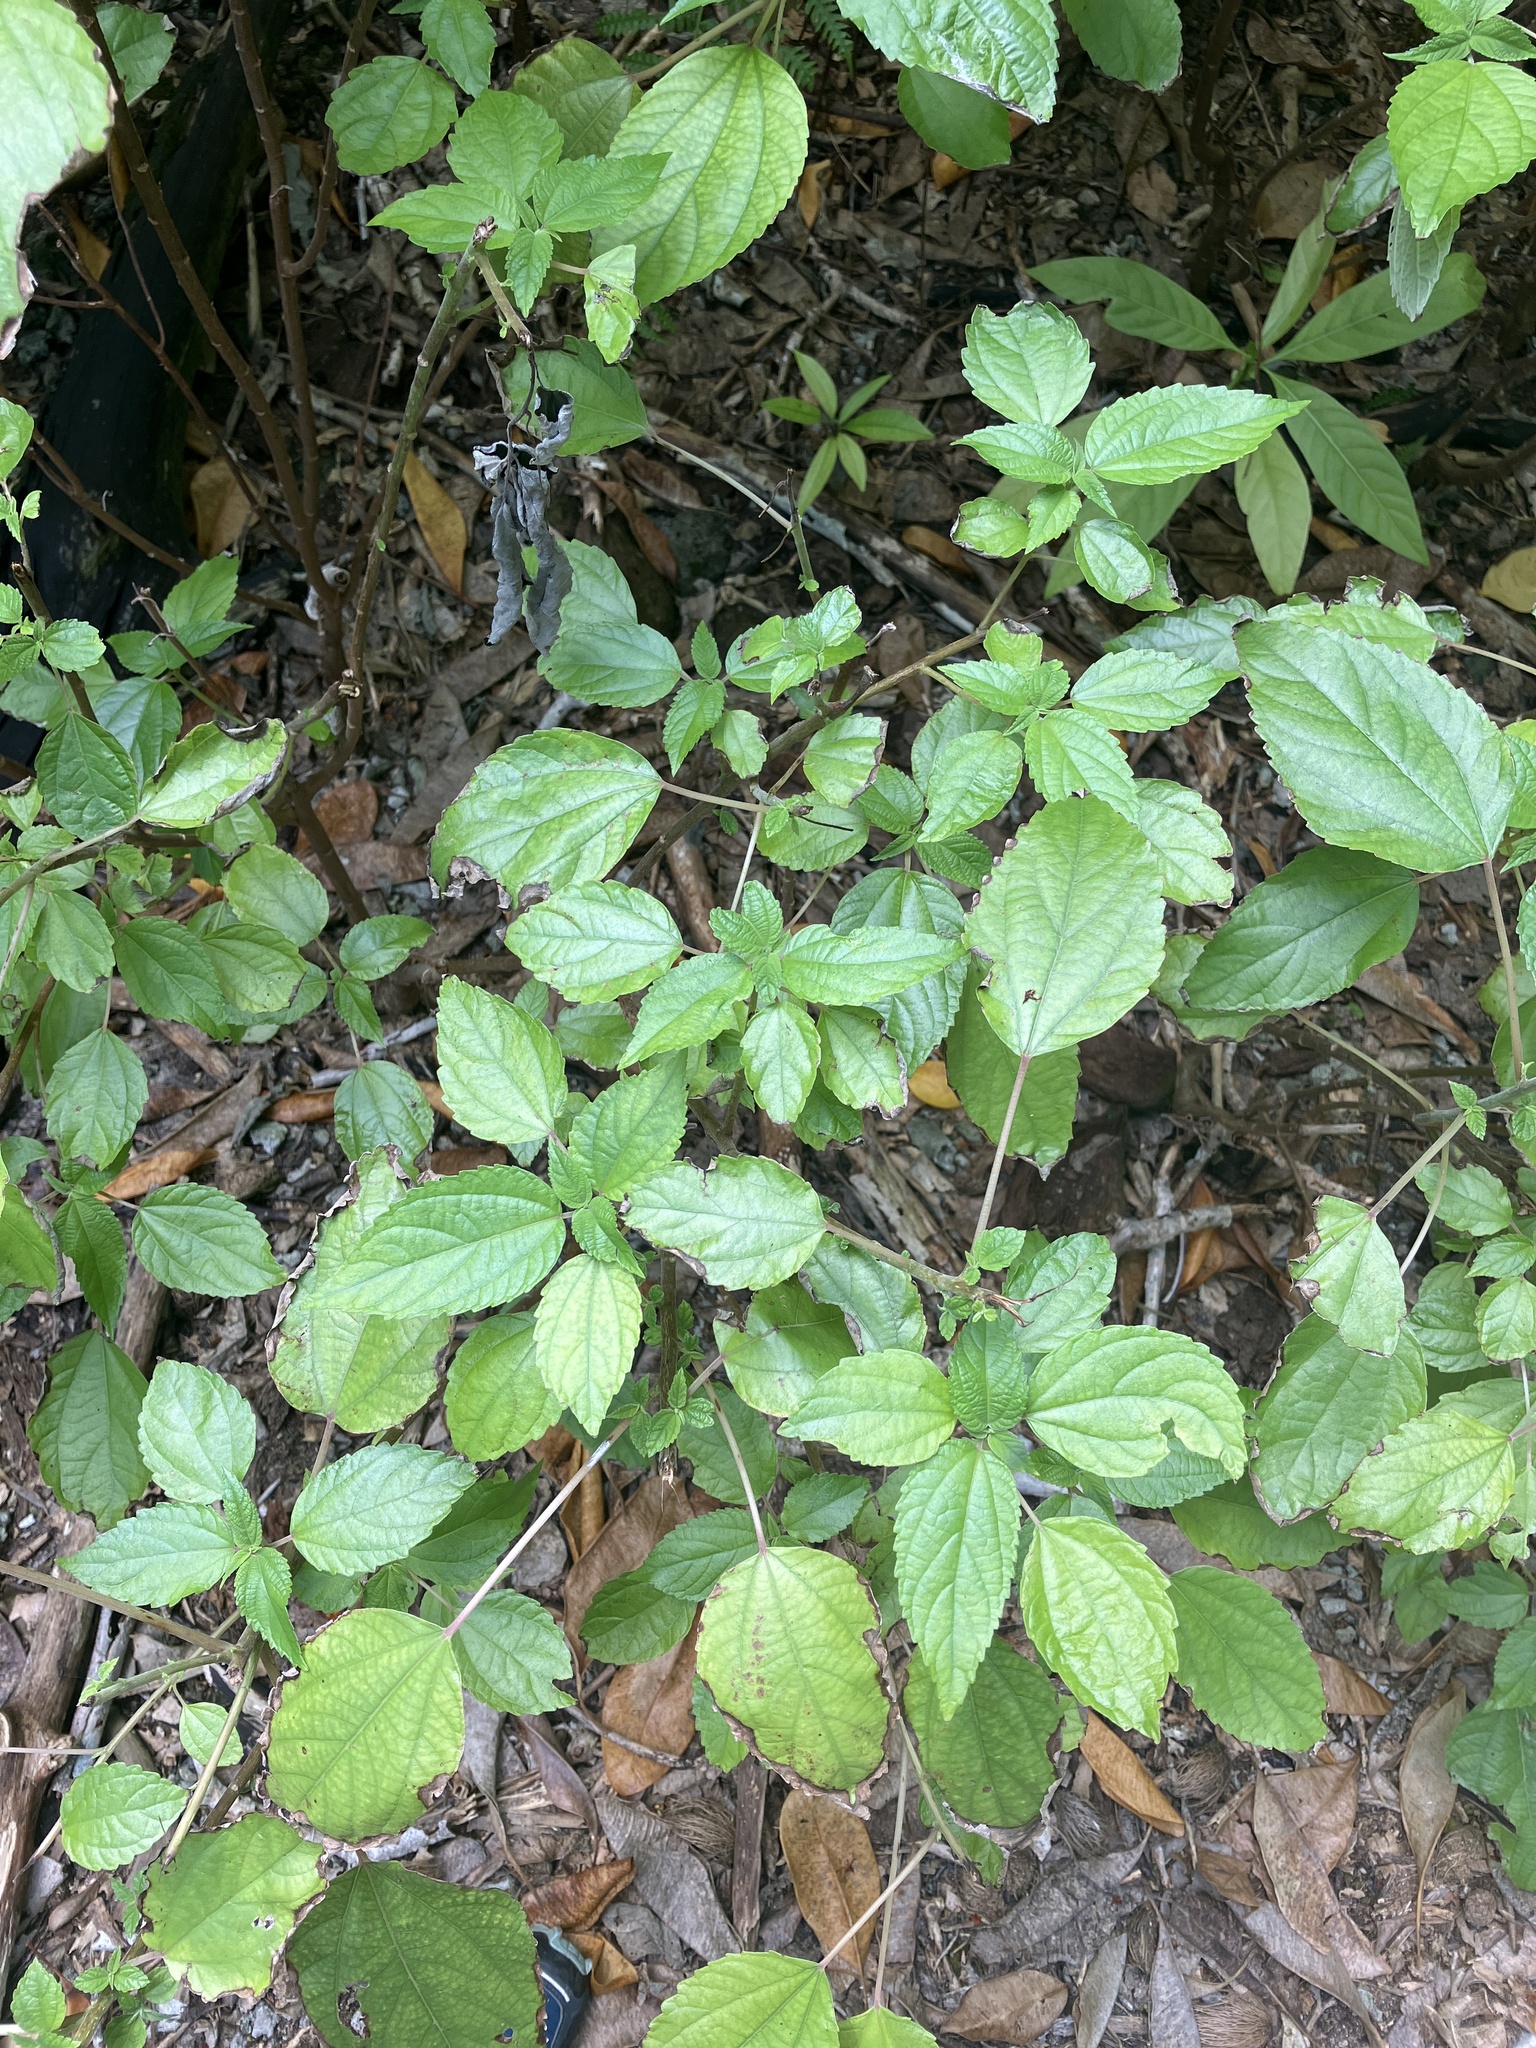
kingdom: Plantae
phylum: Tracheophyta
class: Magnoliopsida
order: Rosales
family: Urticaceae
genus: Pipturus
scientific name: Pipturus argenteus
